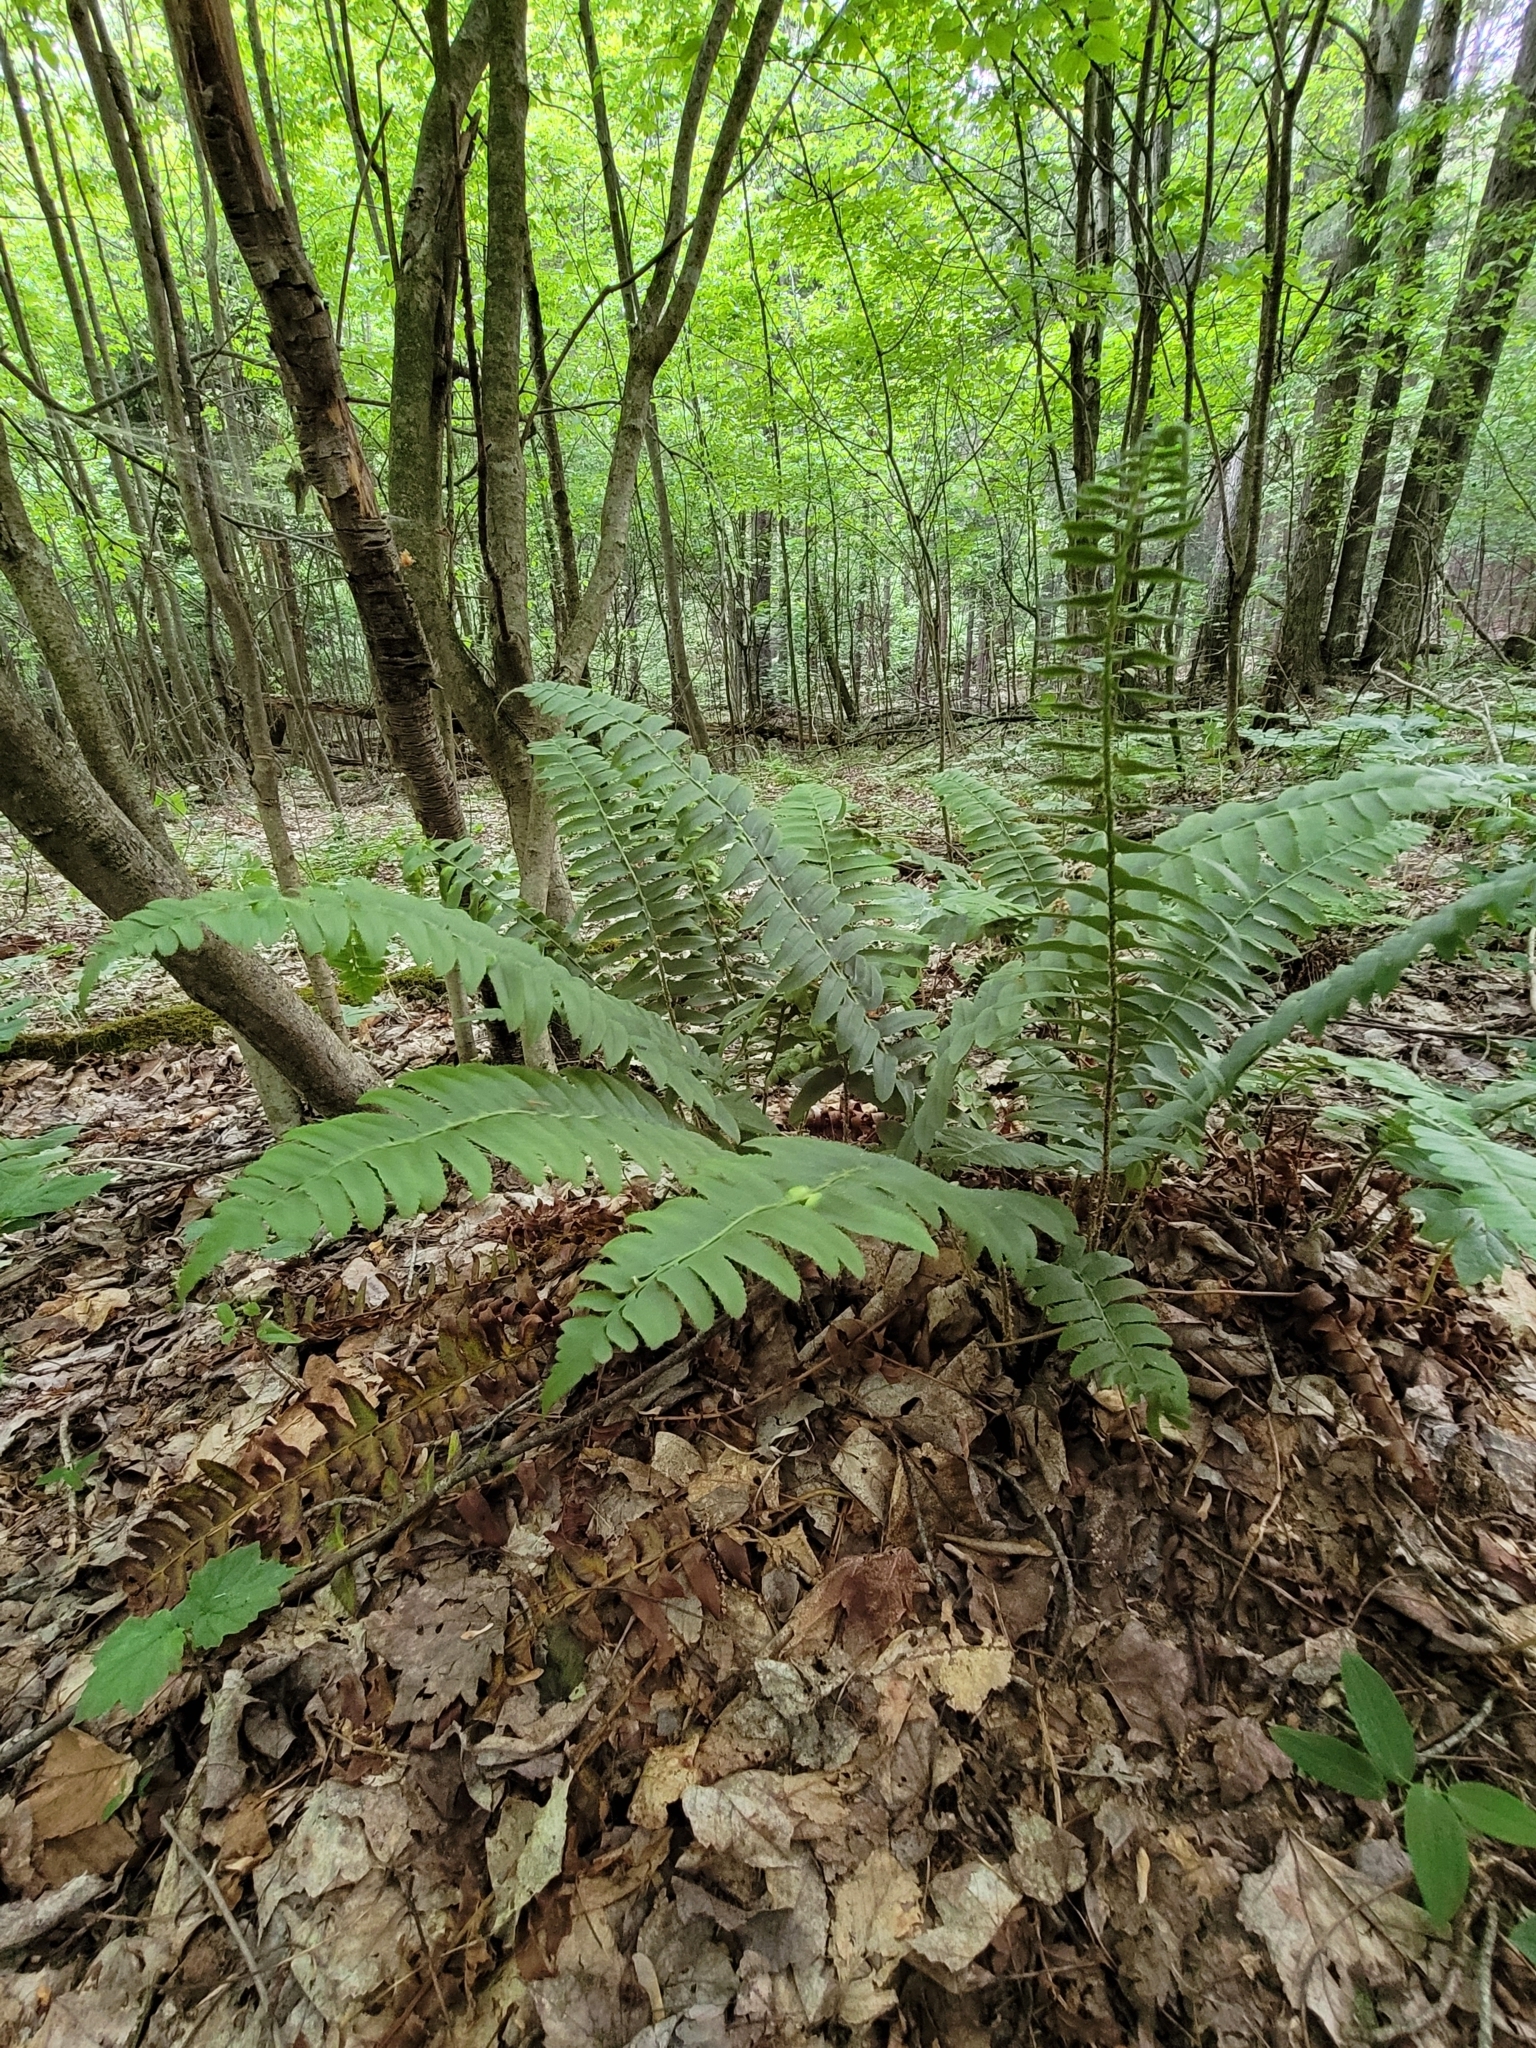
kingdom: Plantae
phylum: Tracheophyta
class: Polypodiopsida
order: Polypodiales
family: Dryopteridaceae
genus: Polystichum
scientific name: Polystichum acrostichoides
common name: Christmas fern
